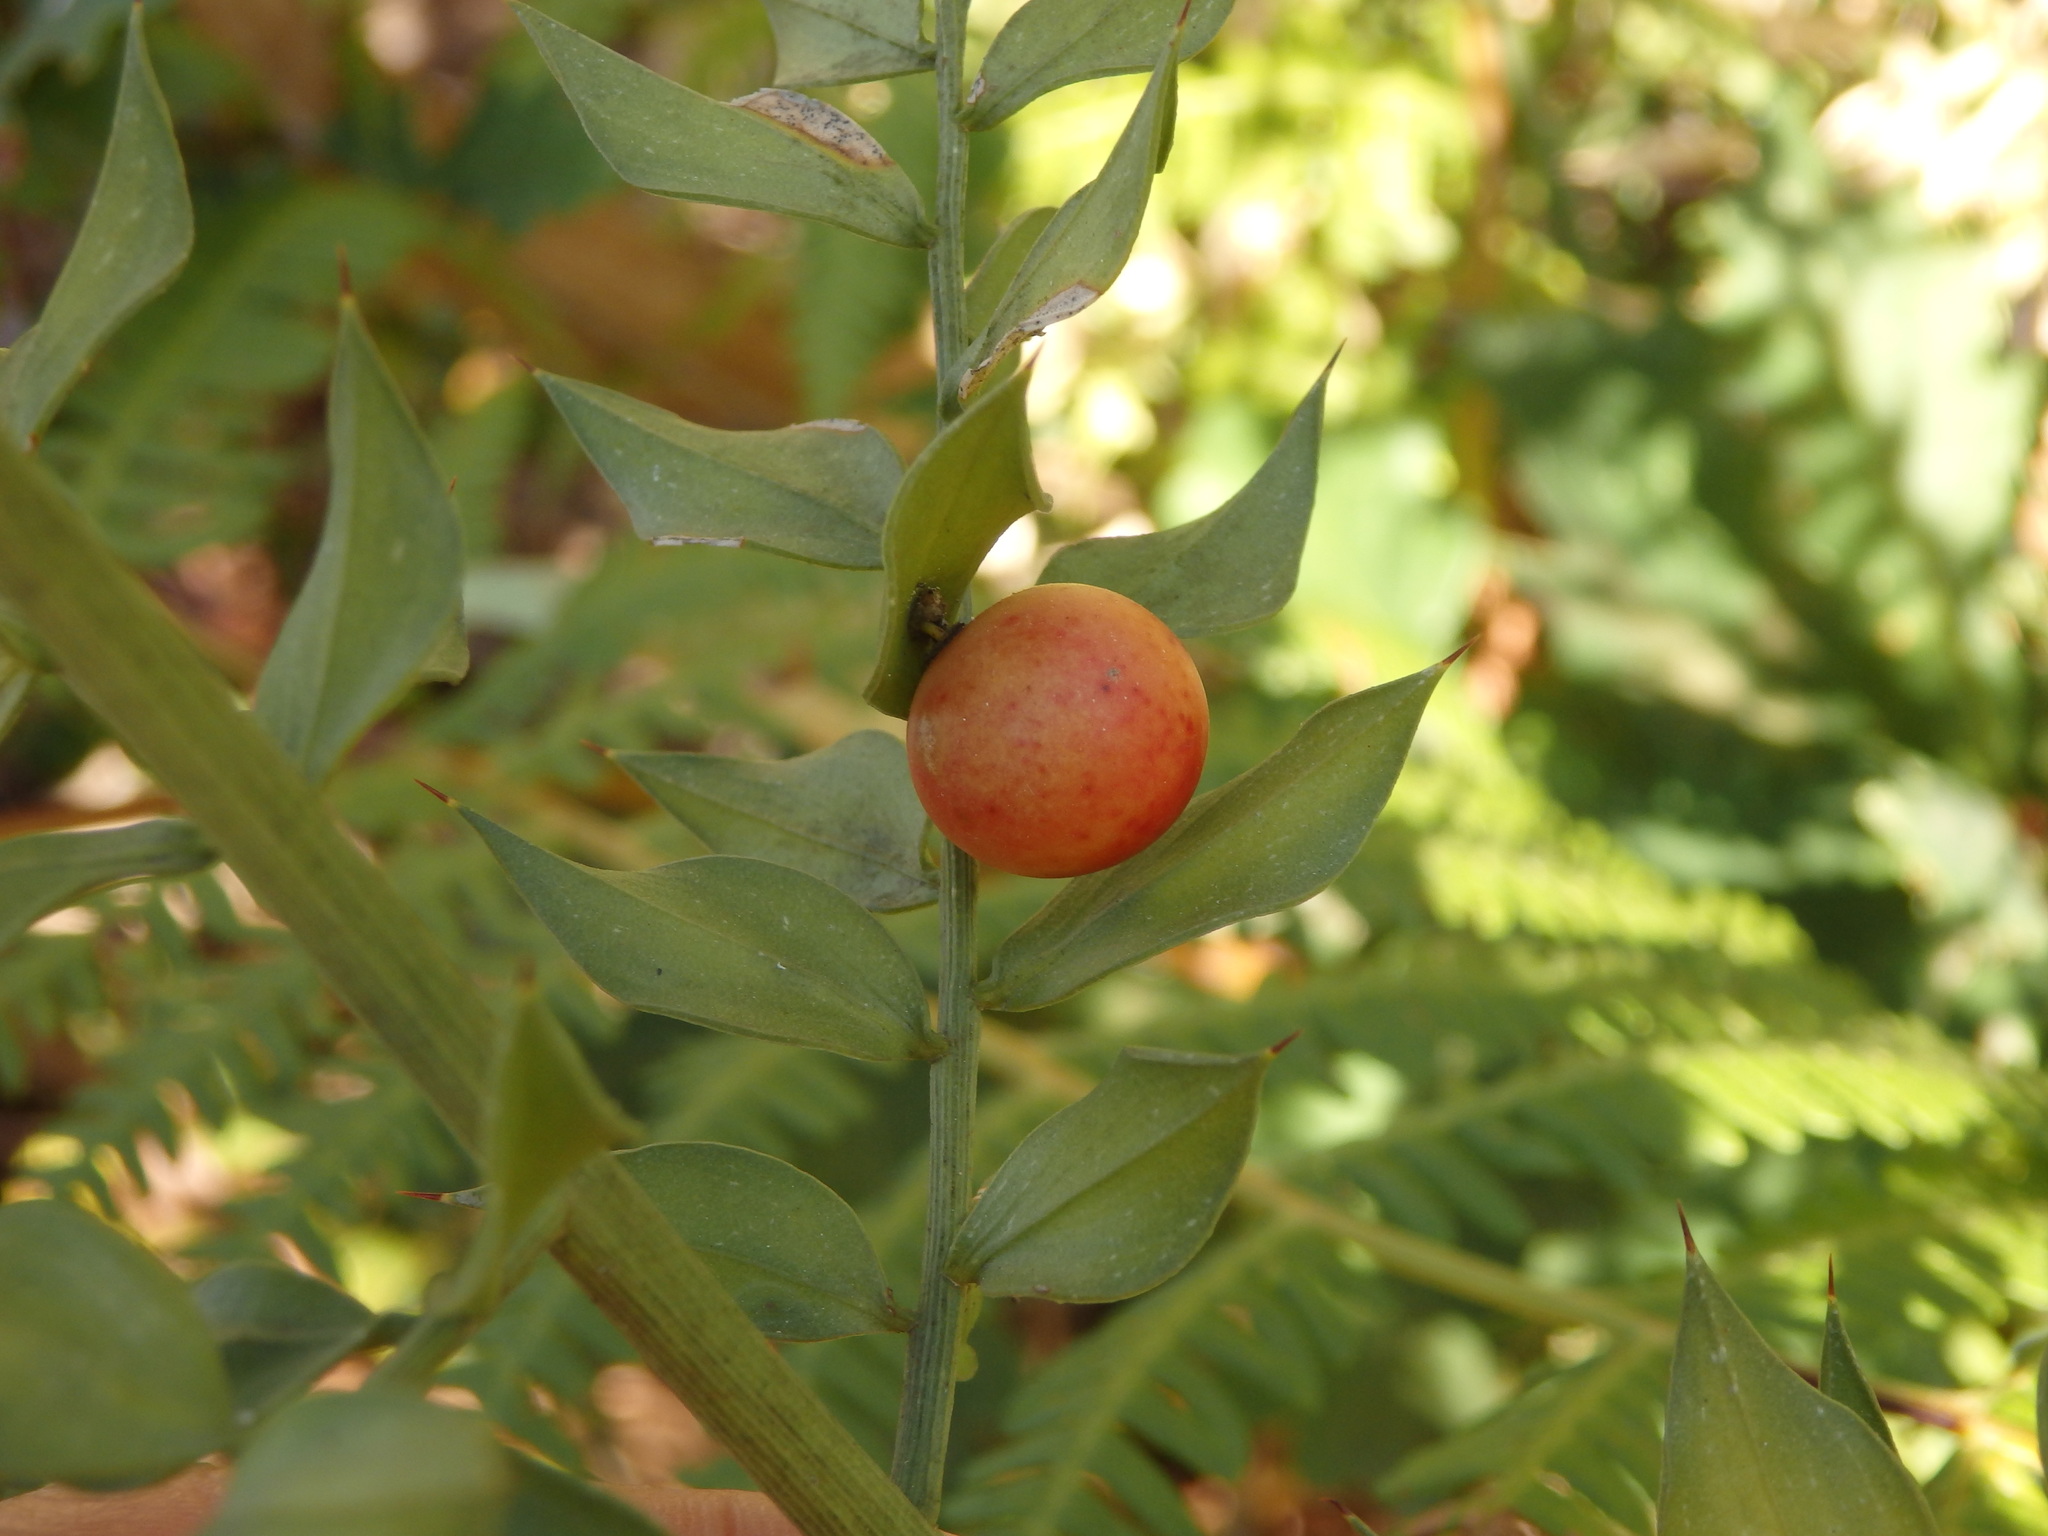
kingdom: Plantae
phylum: Tracheophyta
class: Liliopsida
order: Asparagales
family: Asparagaceae
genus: Ruscus
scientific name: Ruscus aculeatus
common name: Butcher's-broom
